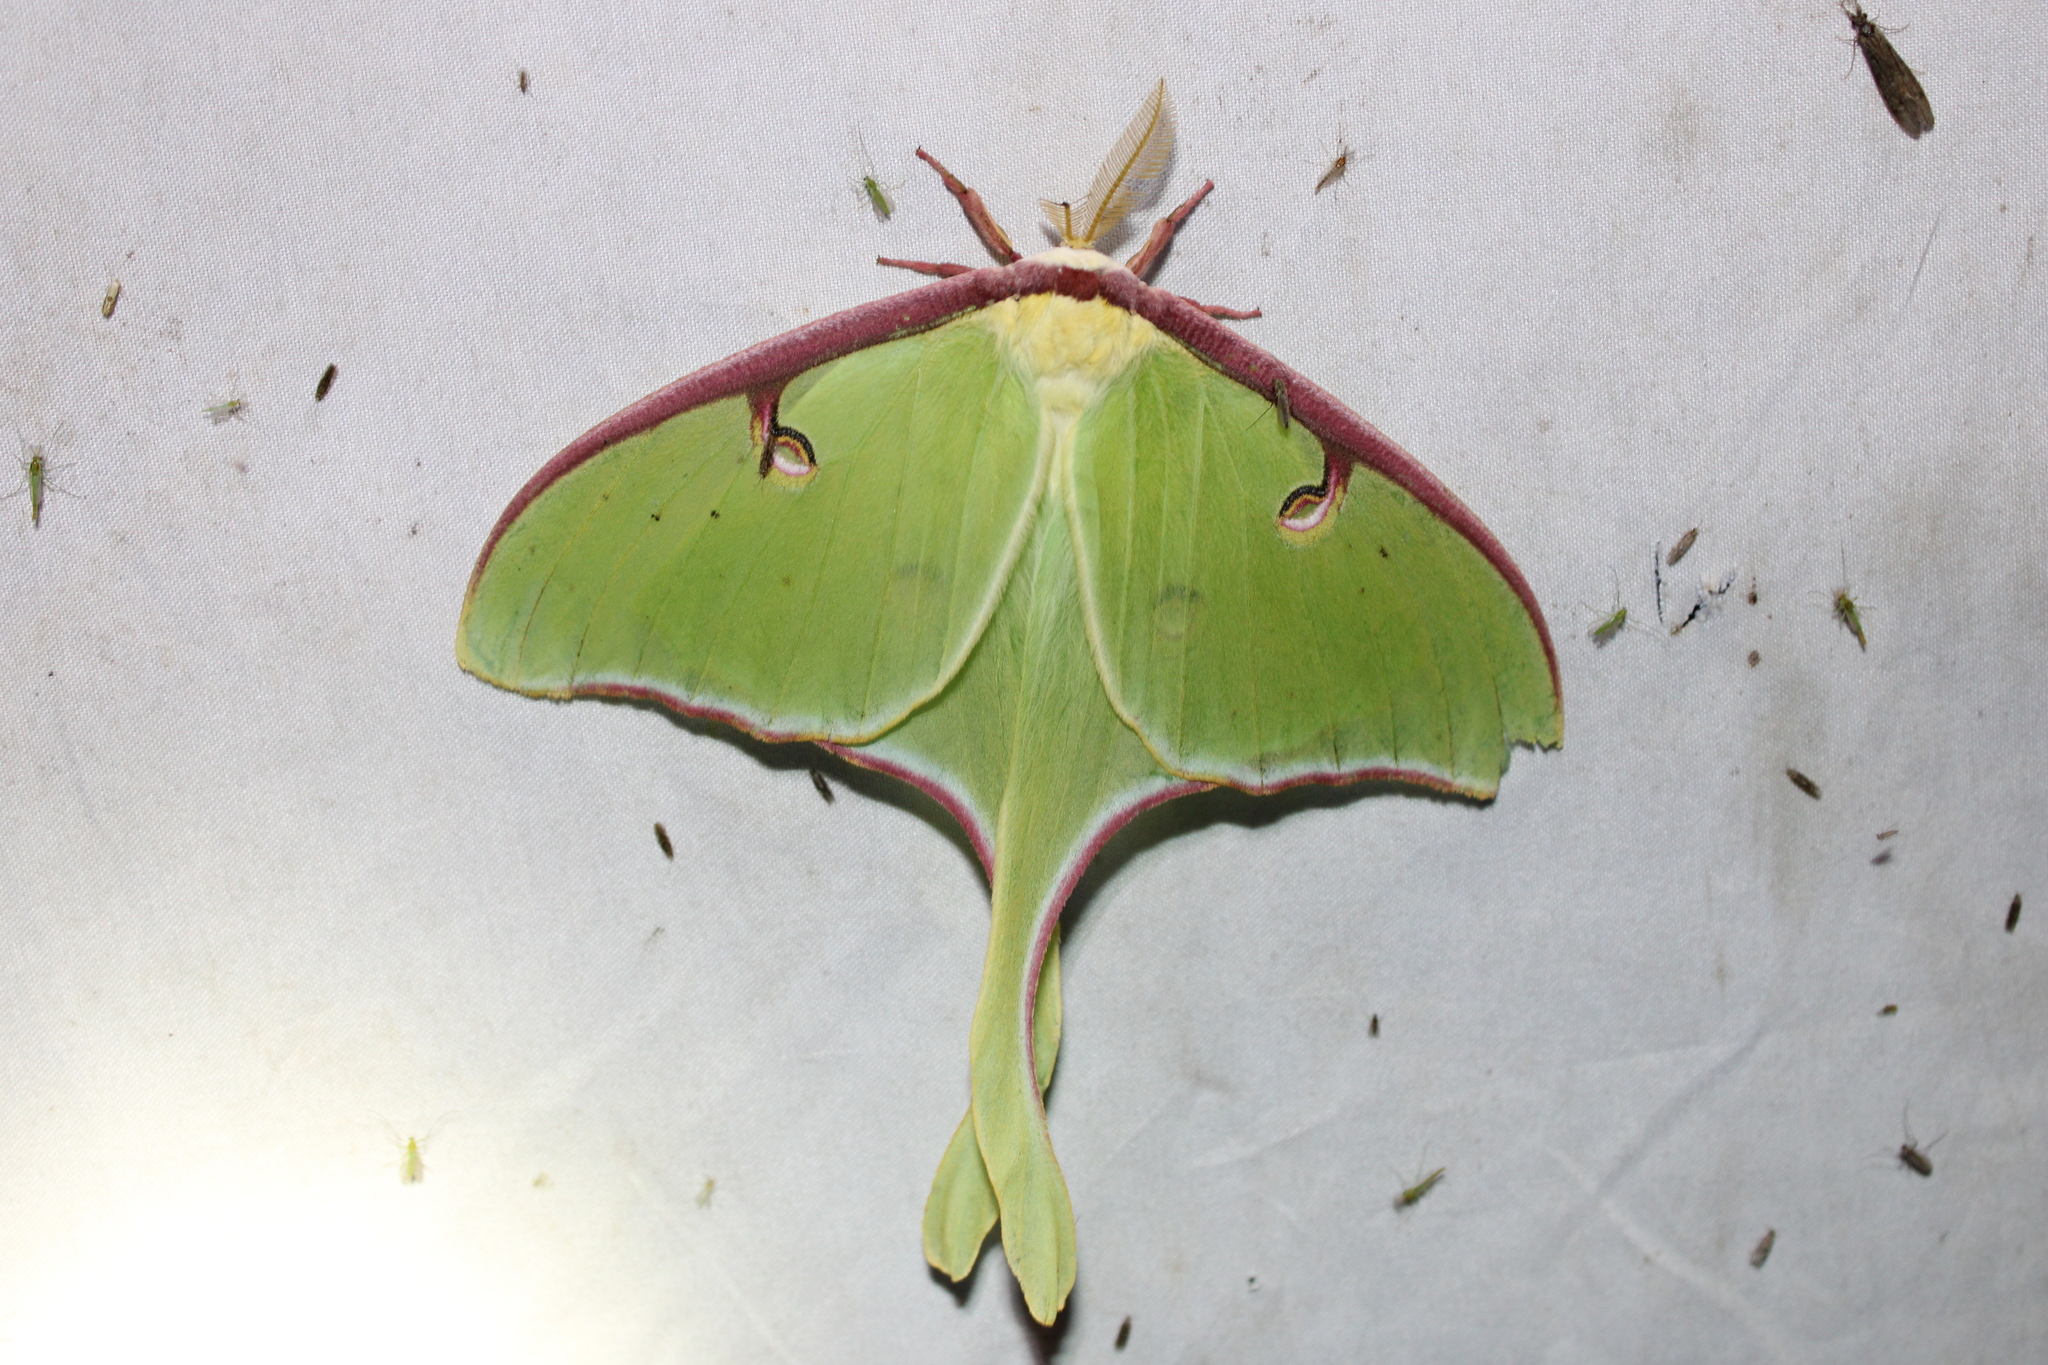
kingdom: Animalia
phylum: Arthropoda
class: Insecta
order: Lepidoptera
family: Saturniidae
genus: Actias
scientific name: Actias luna
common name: Luna moth
